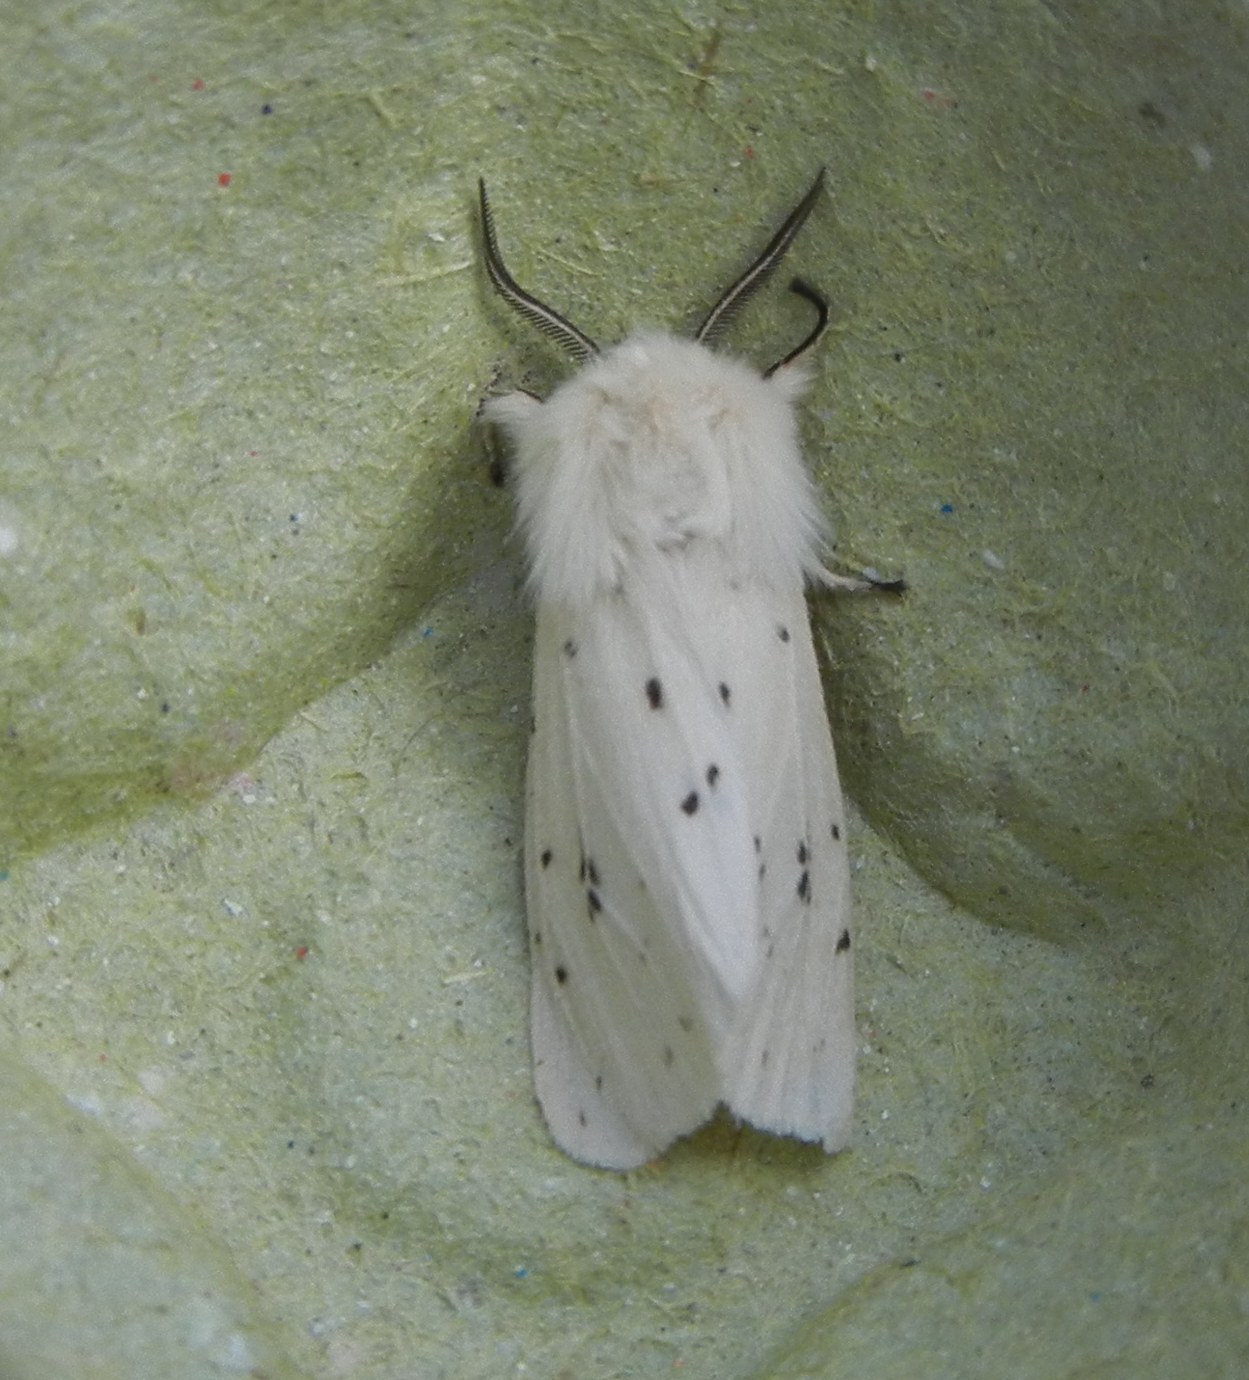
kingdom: Animalia
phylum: Arthropoda
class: Insecta
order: Lepidoptera
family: Erebidae
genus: Spilosoma
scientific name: Spilosoma lubricipeda
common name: White ermine
